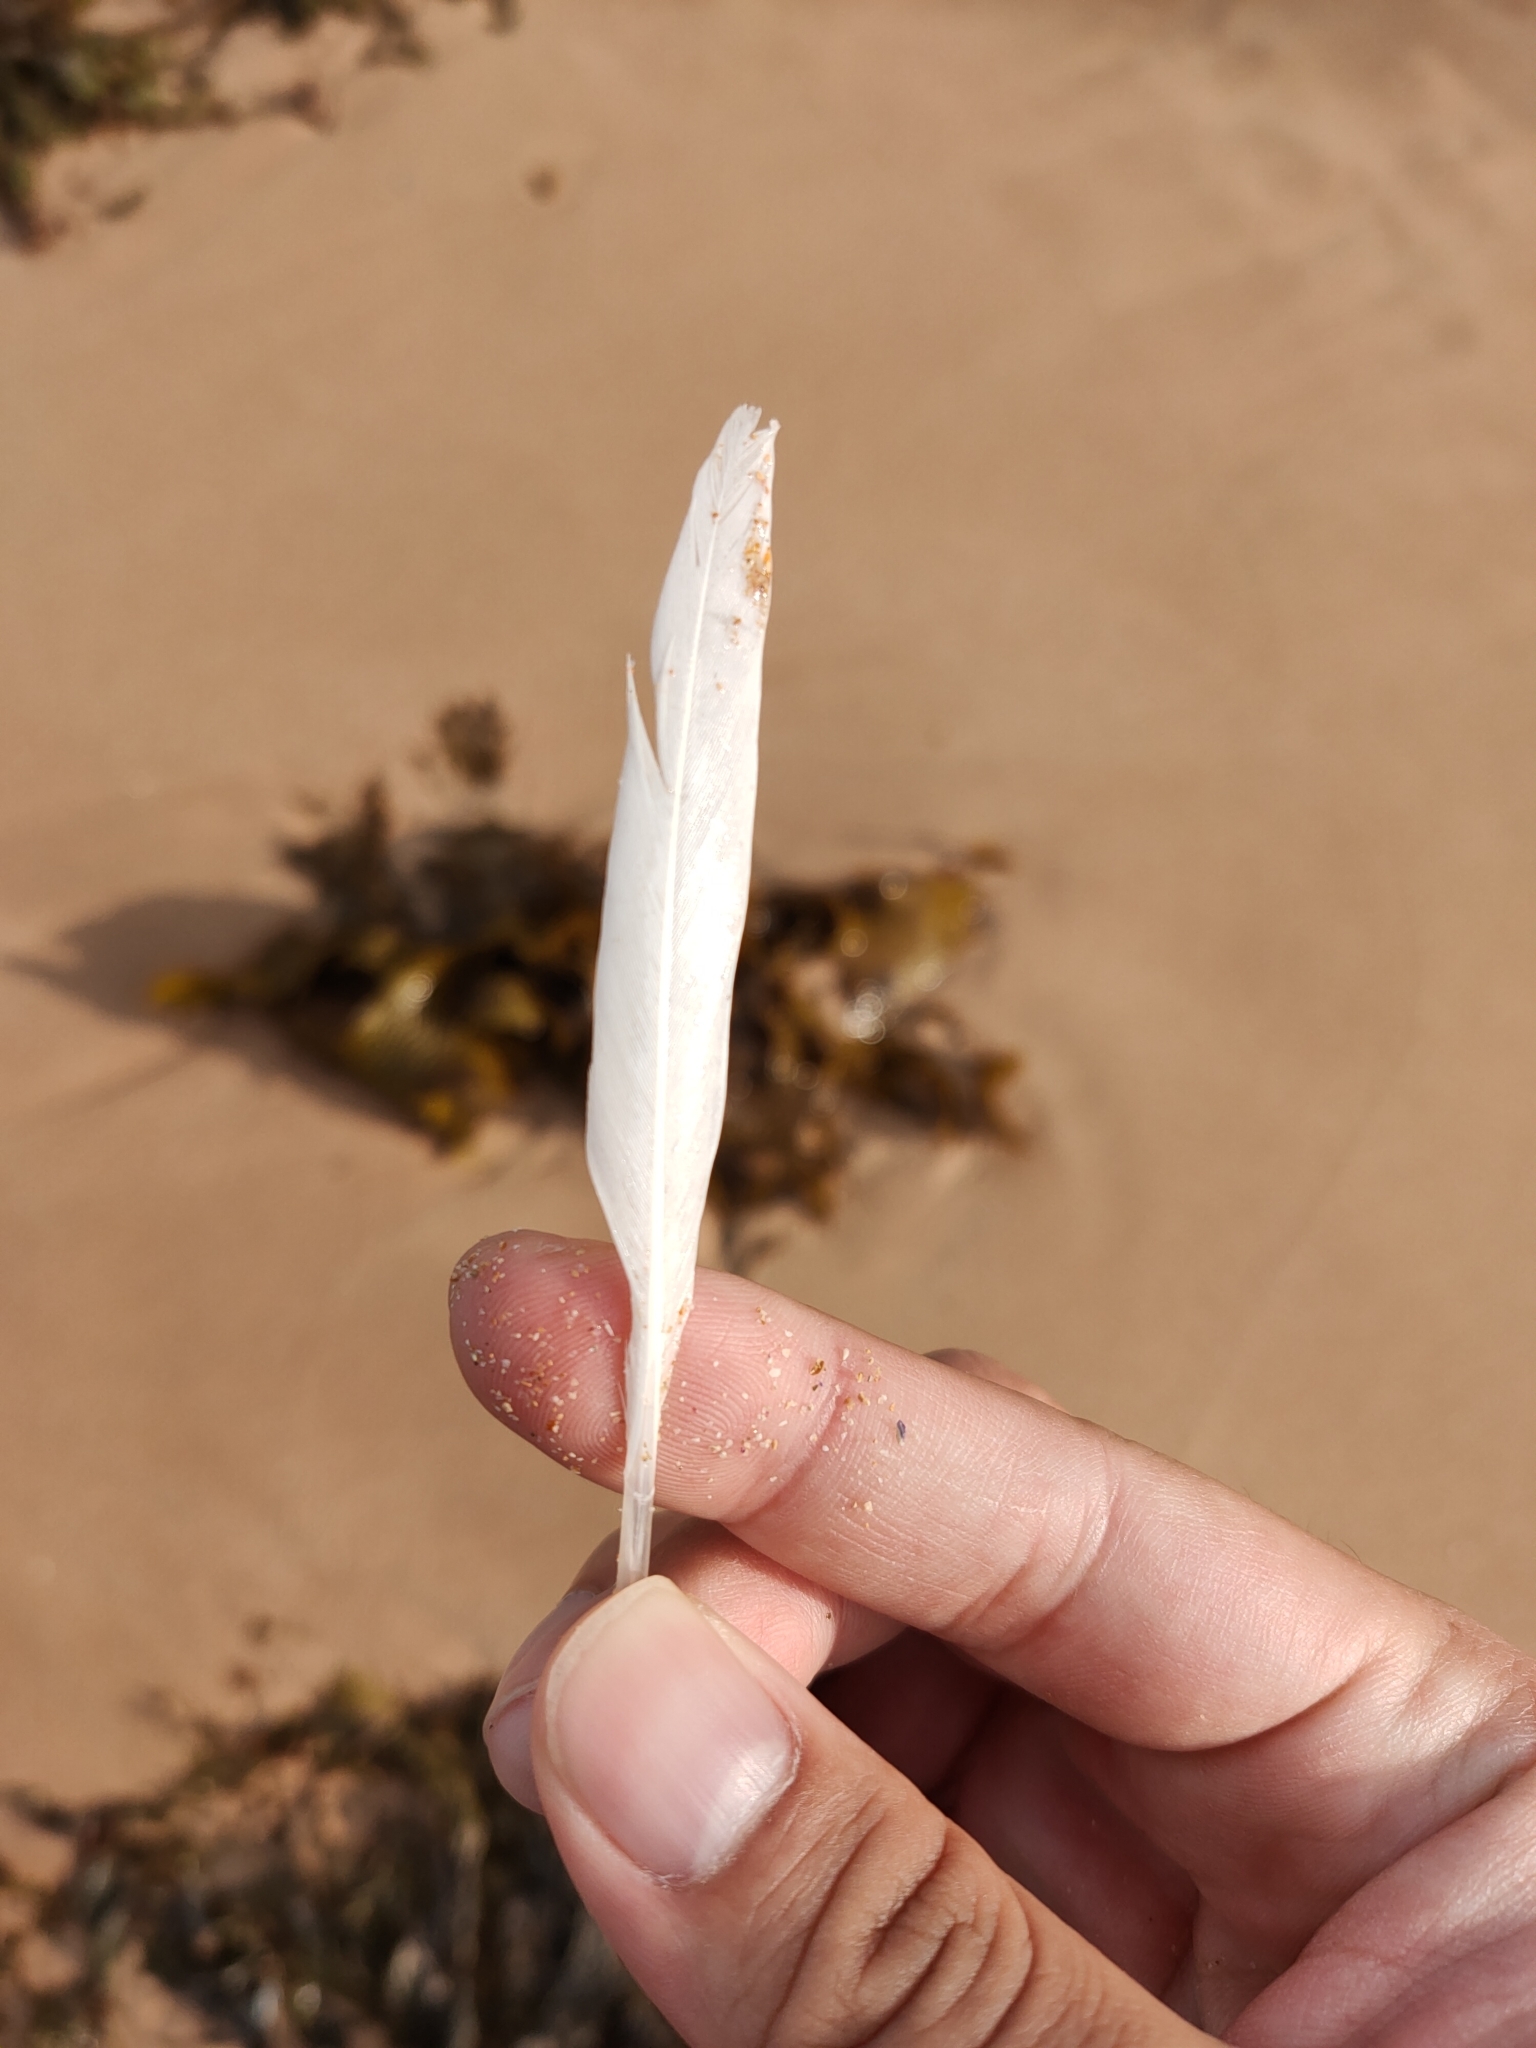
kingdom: Animalia
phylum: Chordata
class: Aves
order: Charadriiformes
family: Laridae
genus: Chroicocephalus
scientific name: Chroicocephalus novaehollandiae
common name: Silver gull
